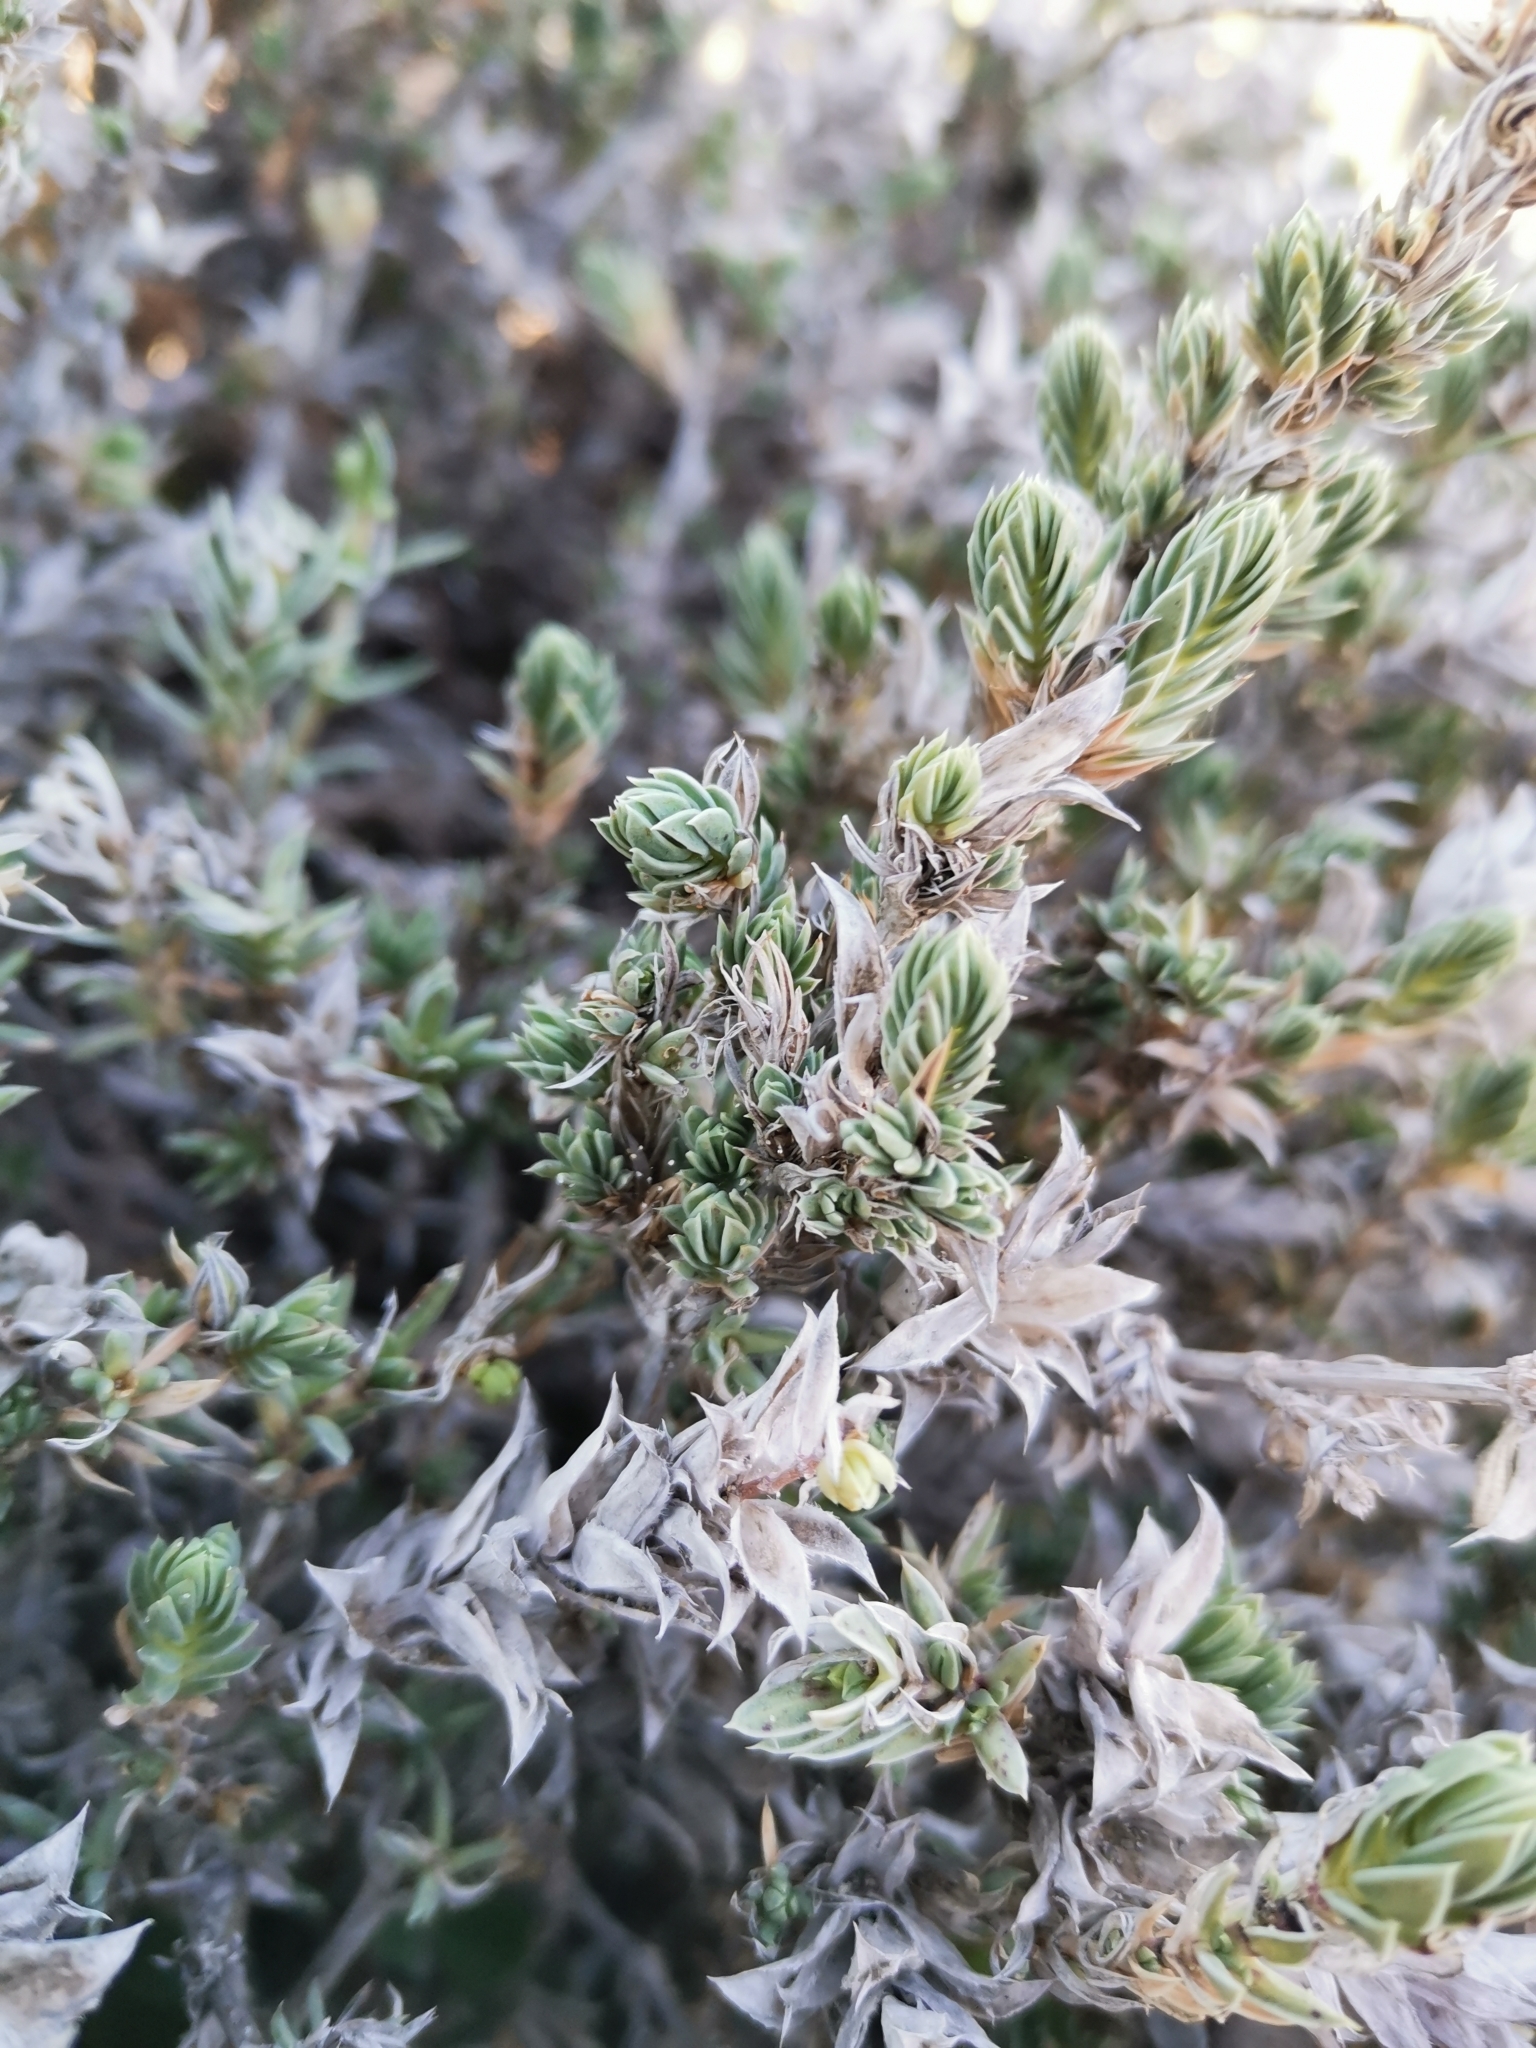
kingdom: Plantae
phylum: Tracheophyta
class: Magnoliopsida
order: Gentianales
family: Rubiaceae
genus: Crucianella
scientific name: Crucianella maritima
